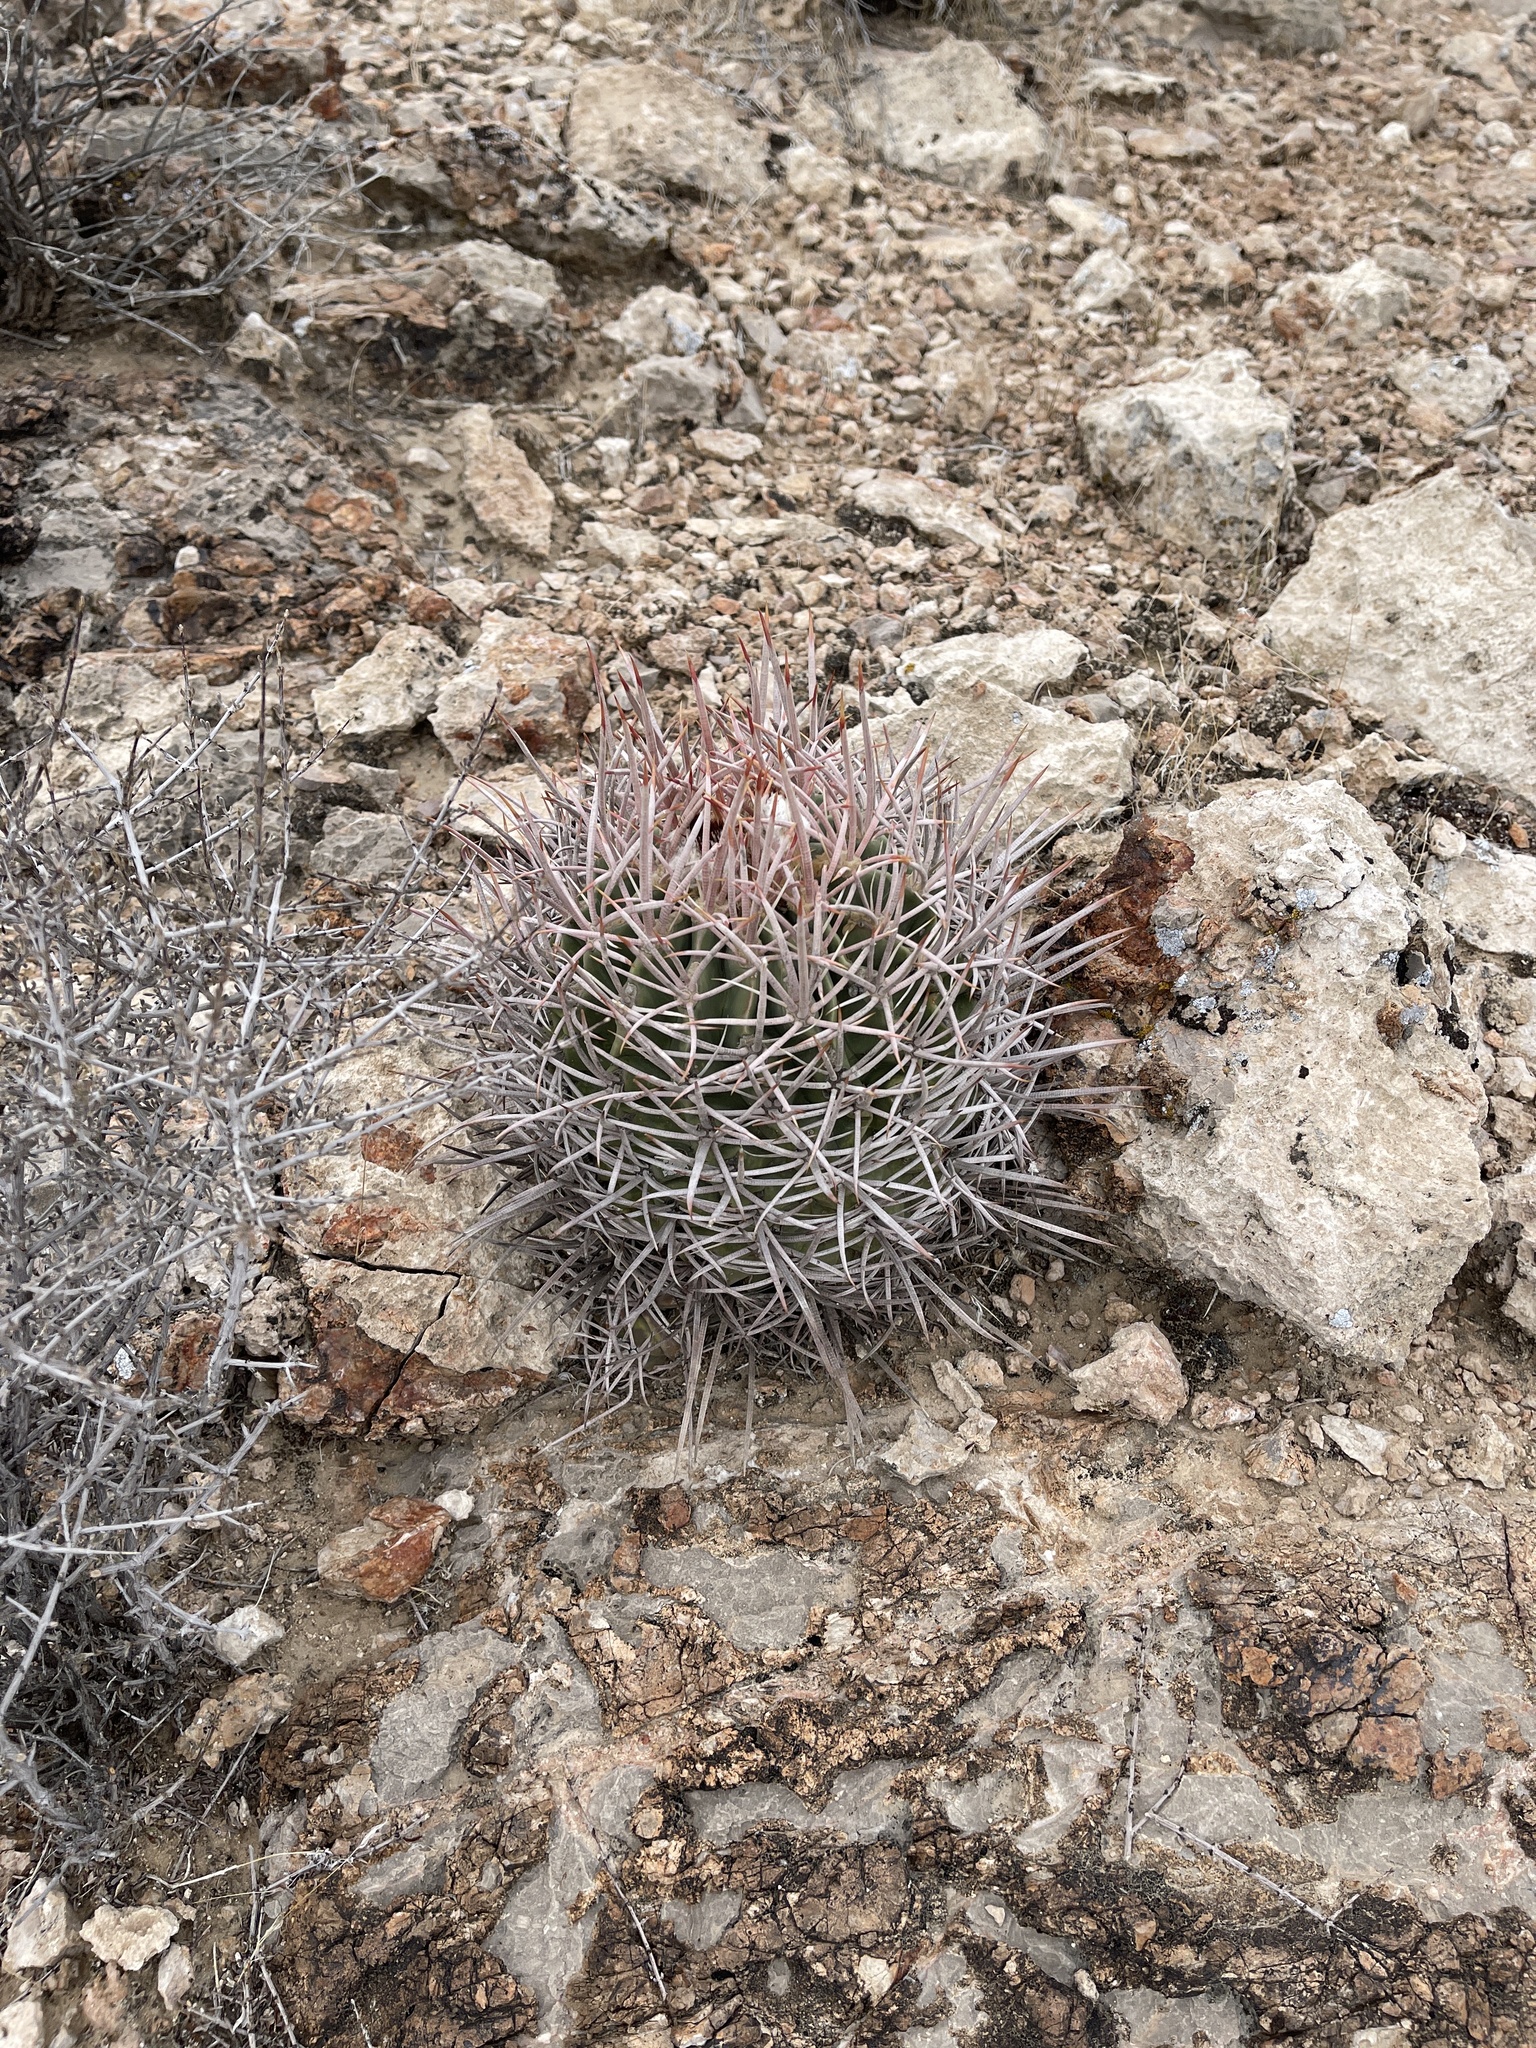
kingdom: Plantae
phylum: Tracheophyta
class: Magnoliopsida
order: Caryophyllales
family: Cactaceae
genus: Echinocactus
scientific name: Echinocactus polycephalus
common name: Cottontop cactus
